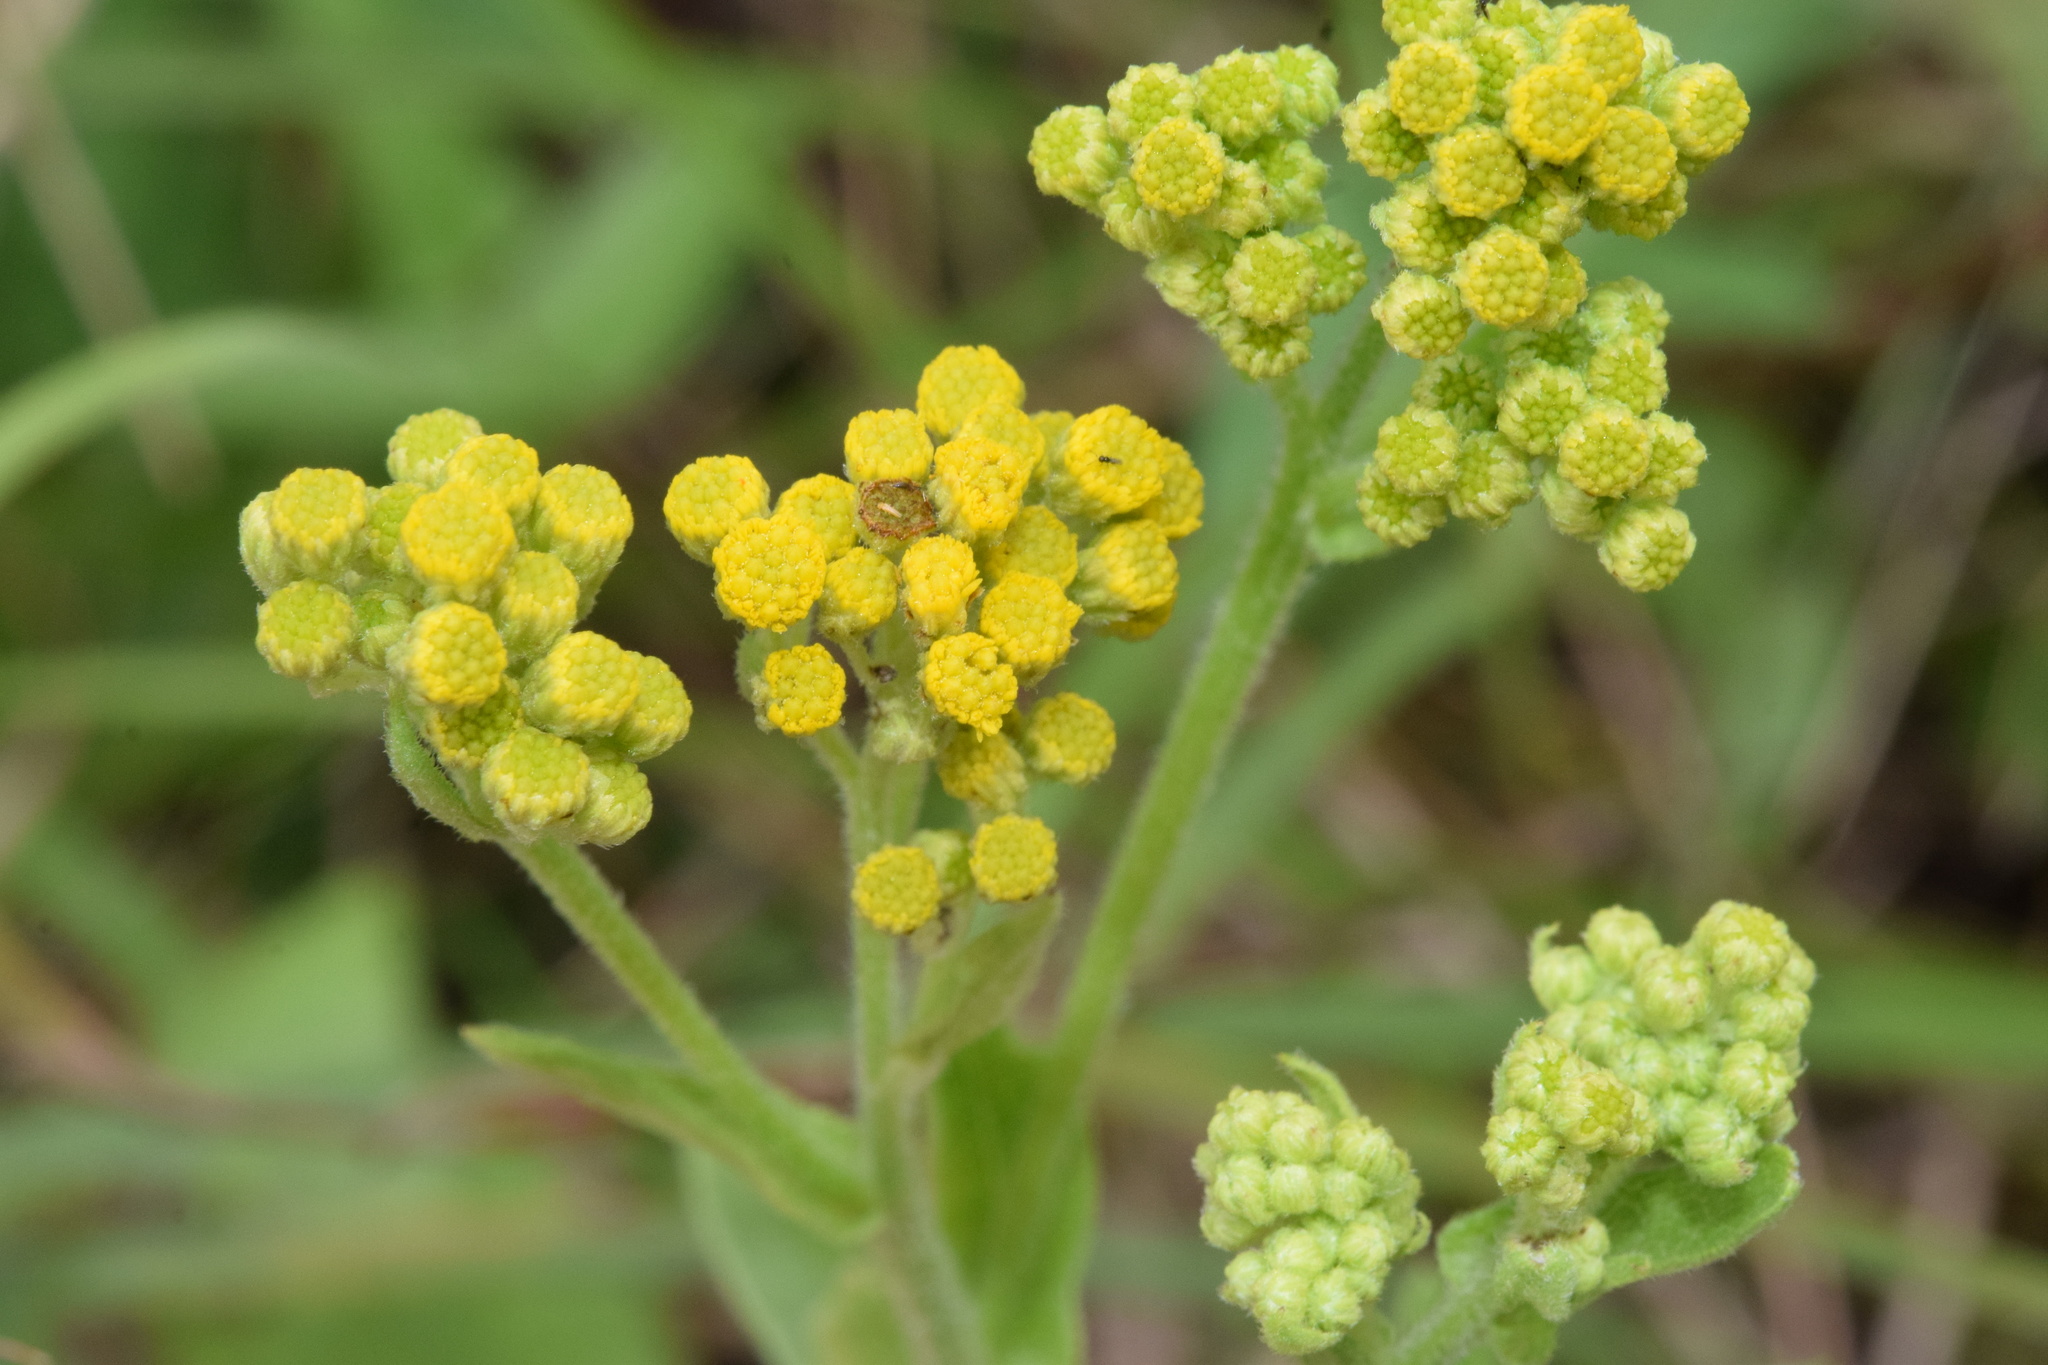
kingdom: Plantae
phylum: Tracheophyta
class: Magnoliopsida
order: Asterales
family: Asteraceae
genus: Nidorella
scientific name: Nidorella auriculata
